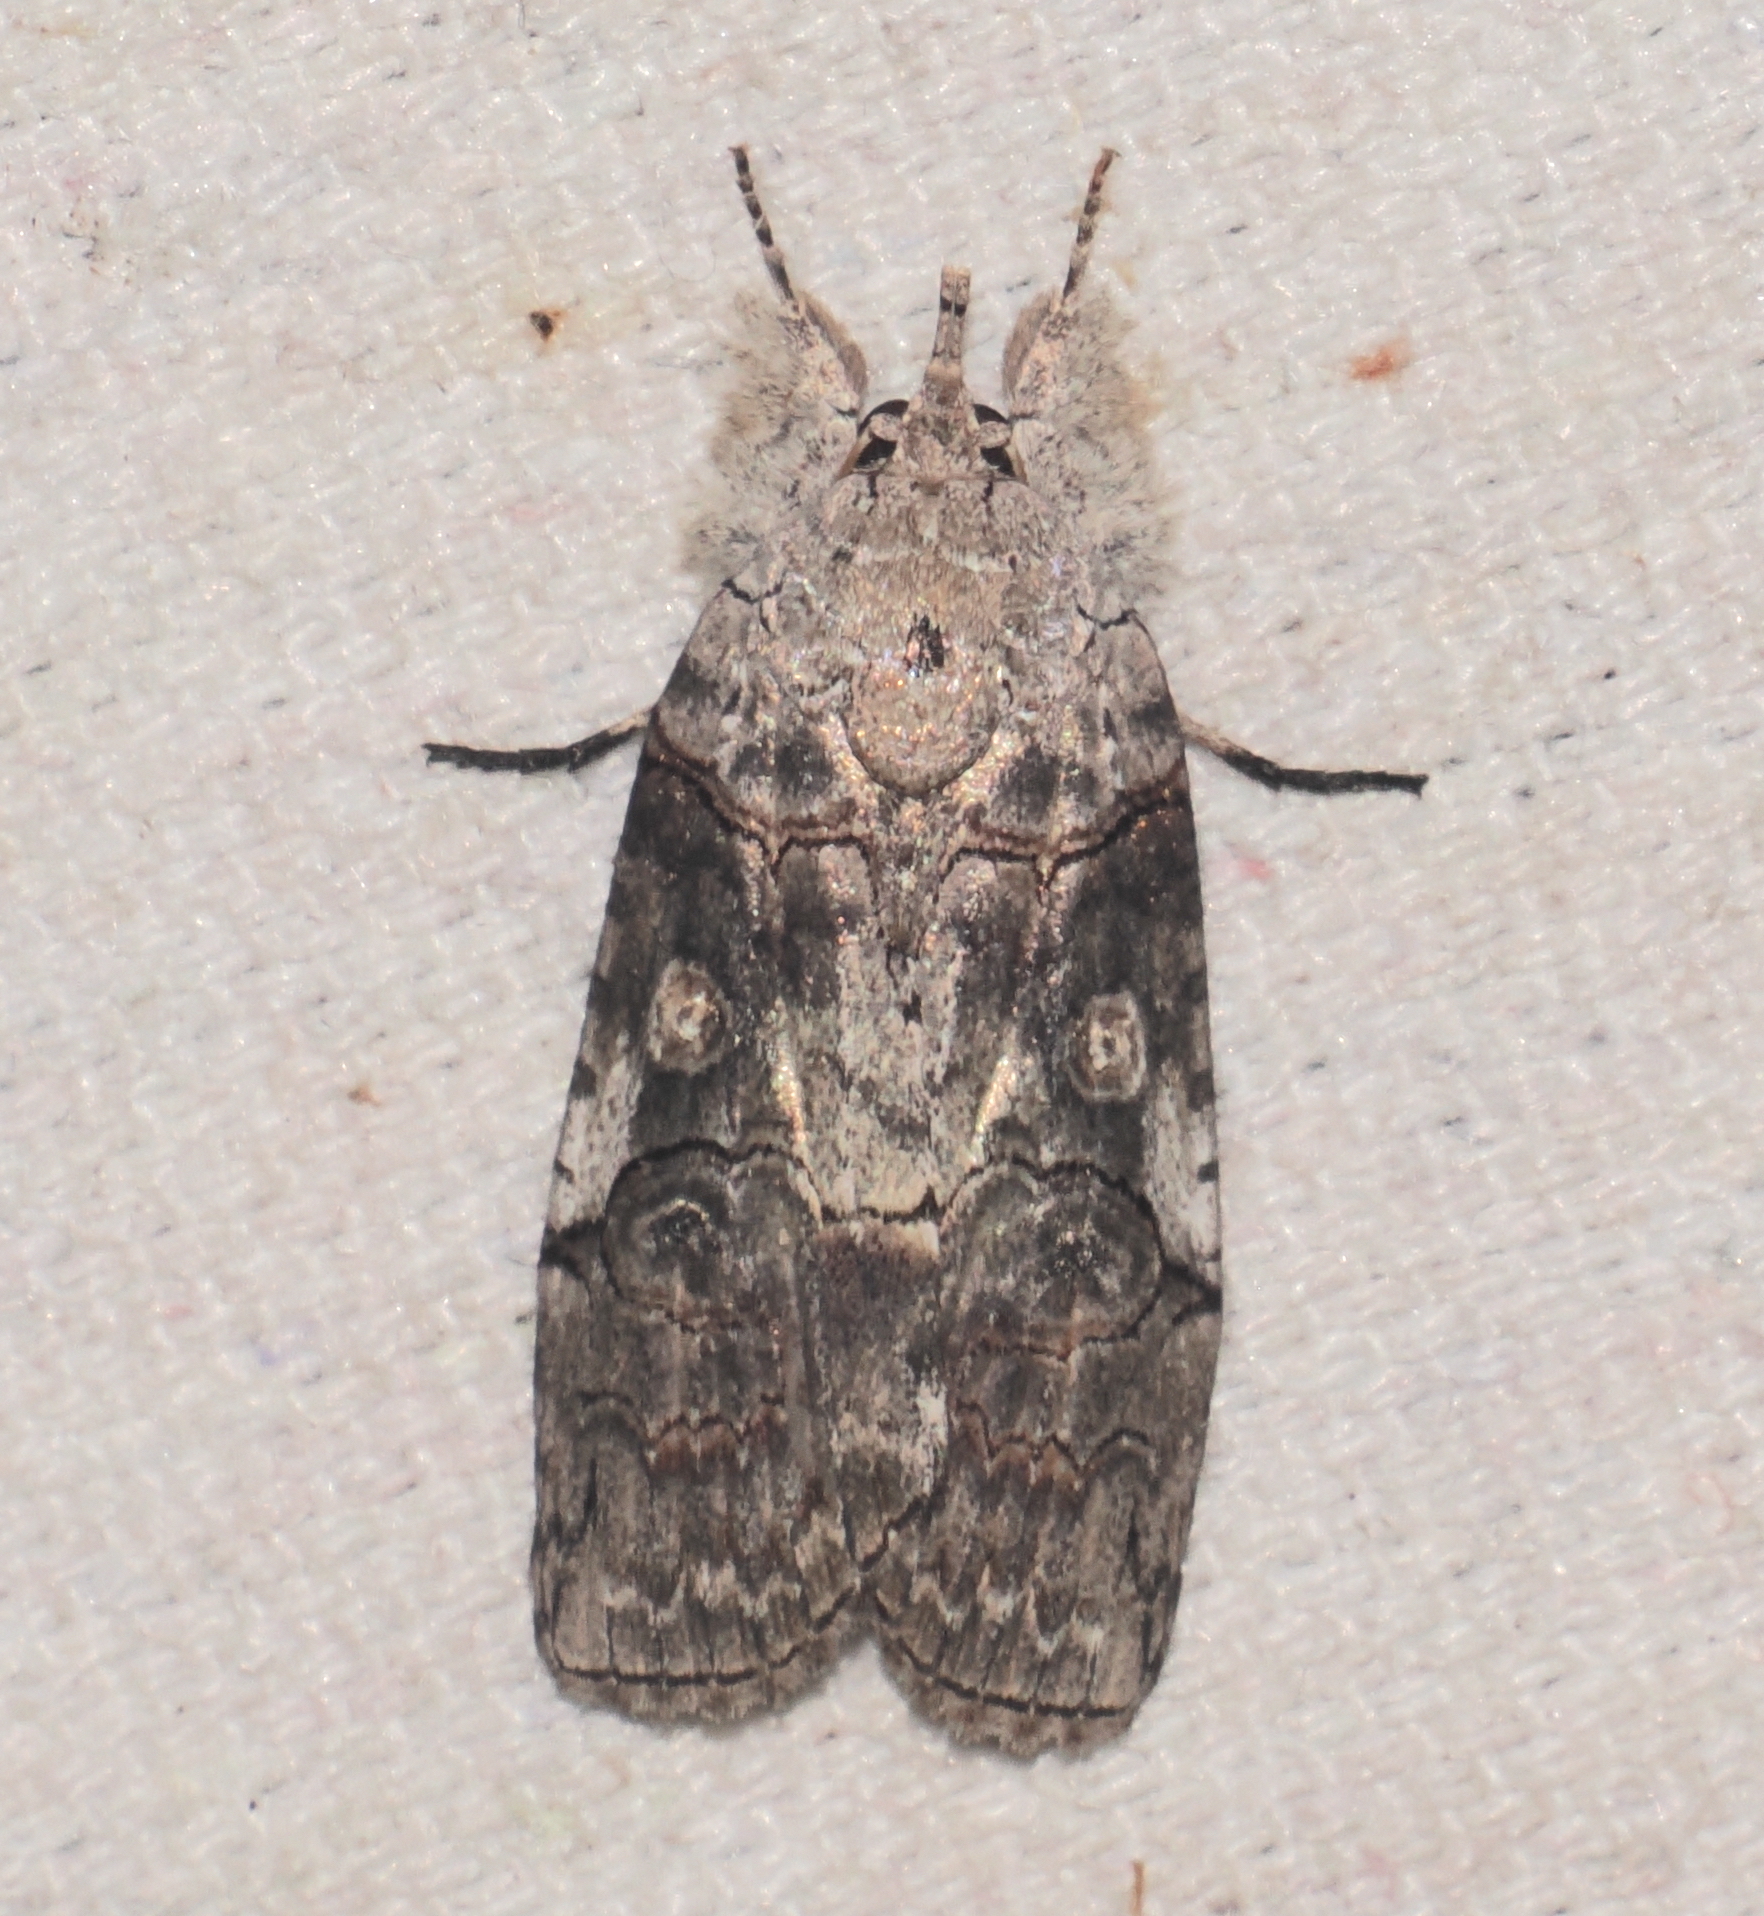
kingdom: Animalia
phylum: Arthropoda
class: Insecta
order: Lepidoptera
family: Nolidae
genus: Iscadia
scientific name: Iscadia aperta
